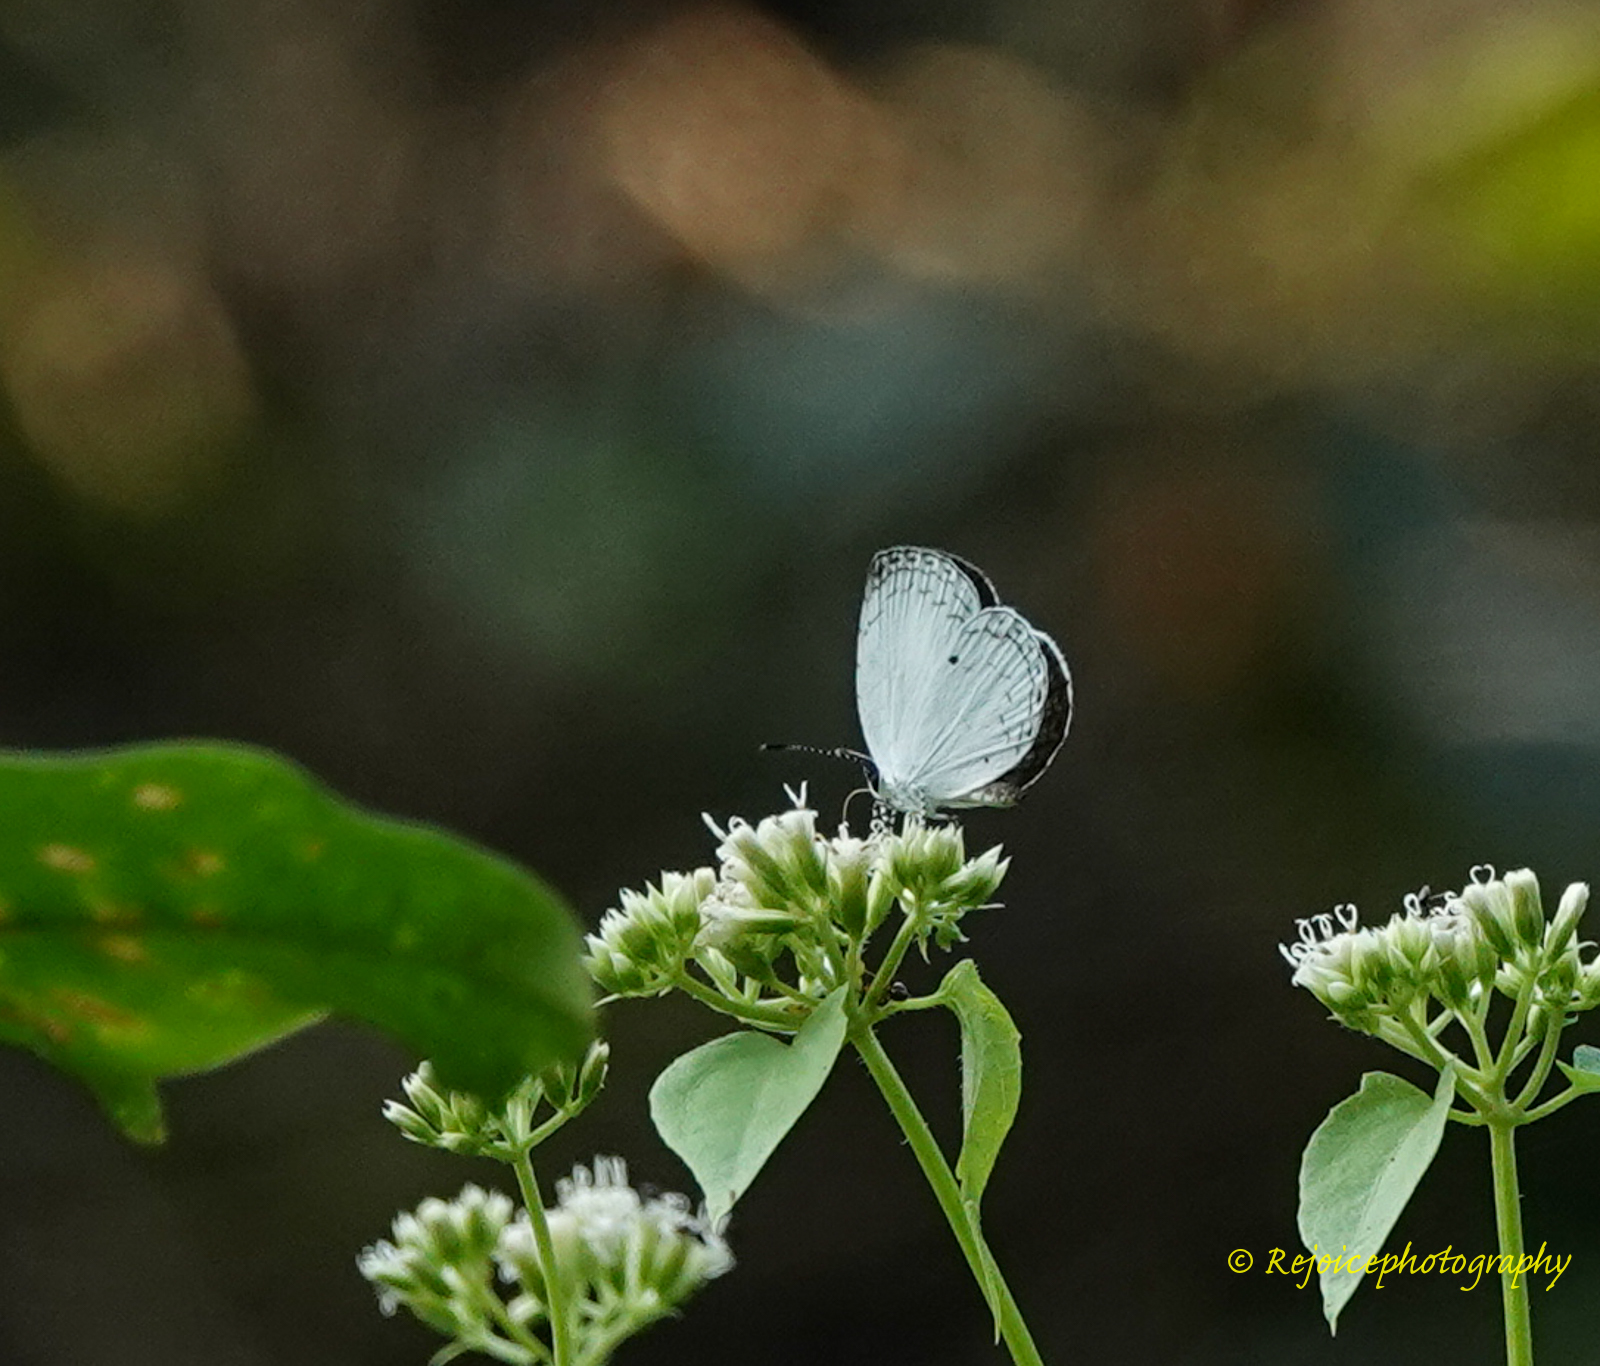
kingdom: Animalia
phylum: Arthropoda
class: Insecta
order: Lepidoptera
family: Lycaenidae
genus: Neopithecops
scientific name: Neopithecops zalmora
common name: Quaker
